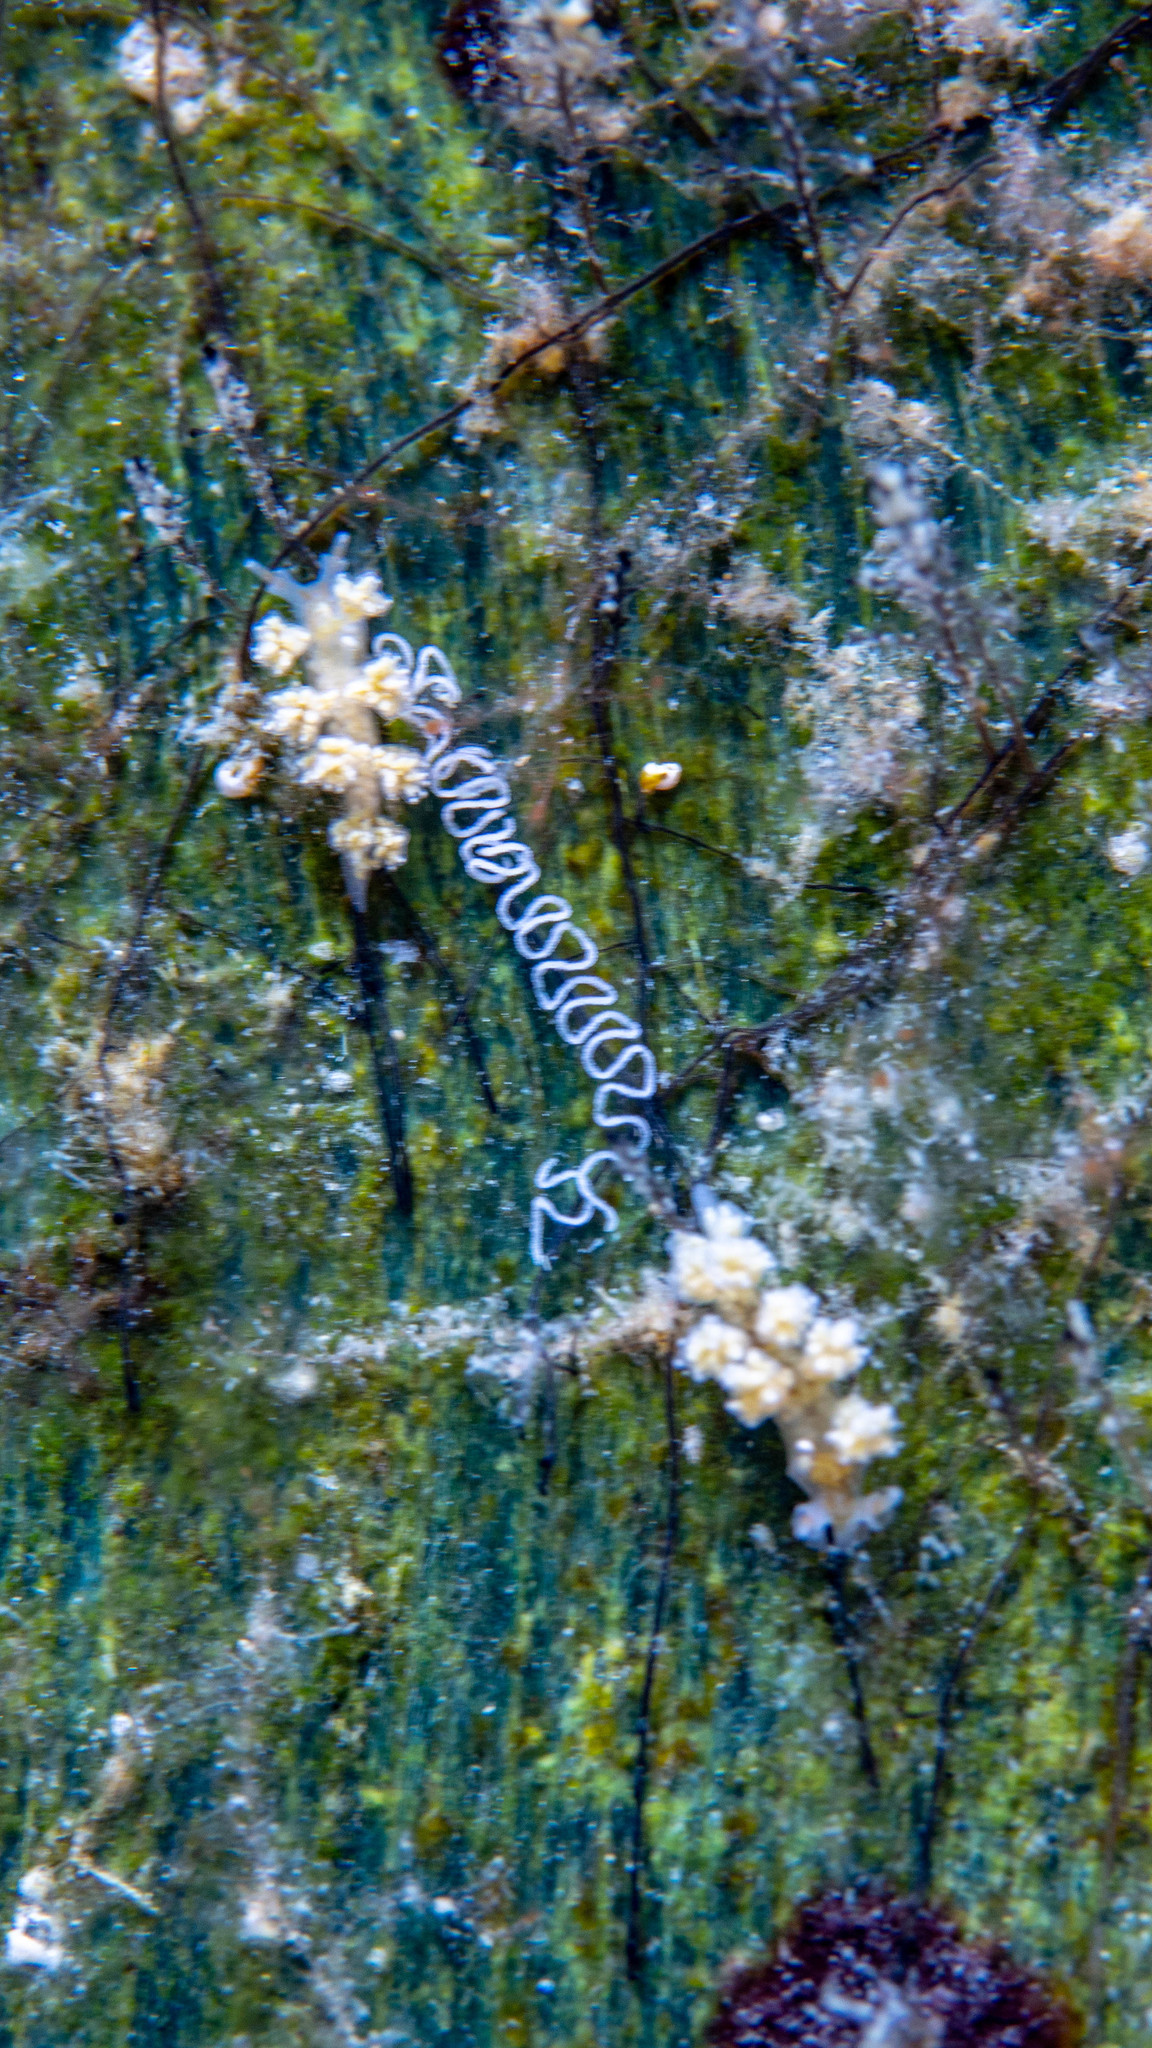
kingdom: Animalia
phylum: Mollusca
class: Gastropoda
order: Nudibranchia
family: Dotidae
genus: Doto
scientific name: Doto pita
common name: Pita doto
